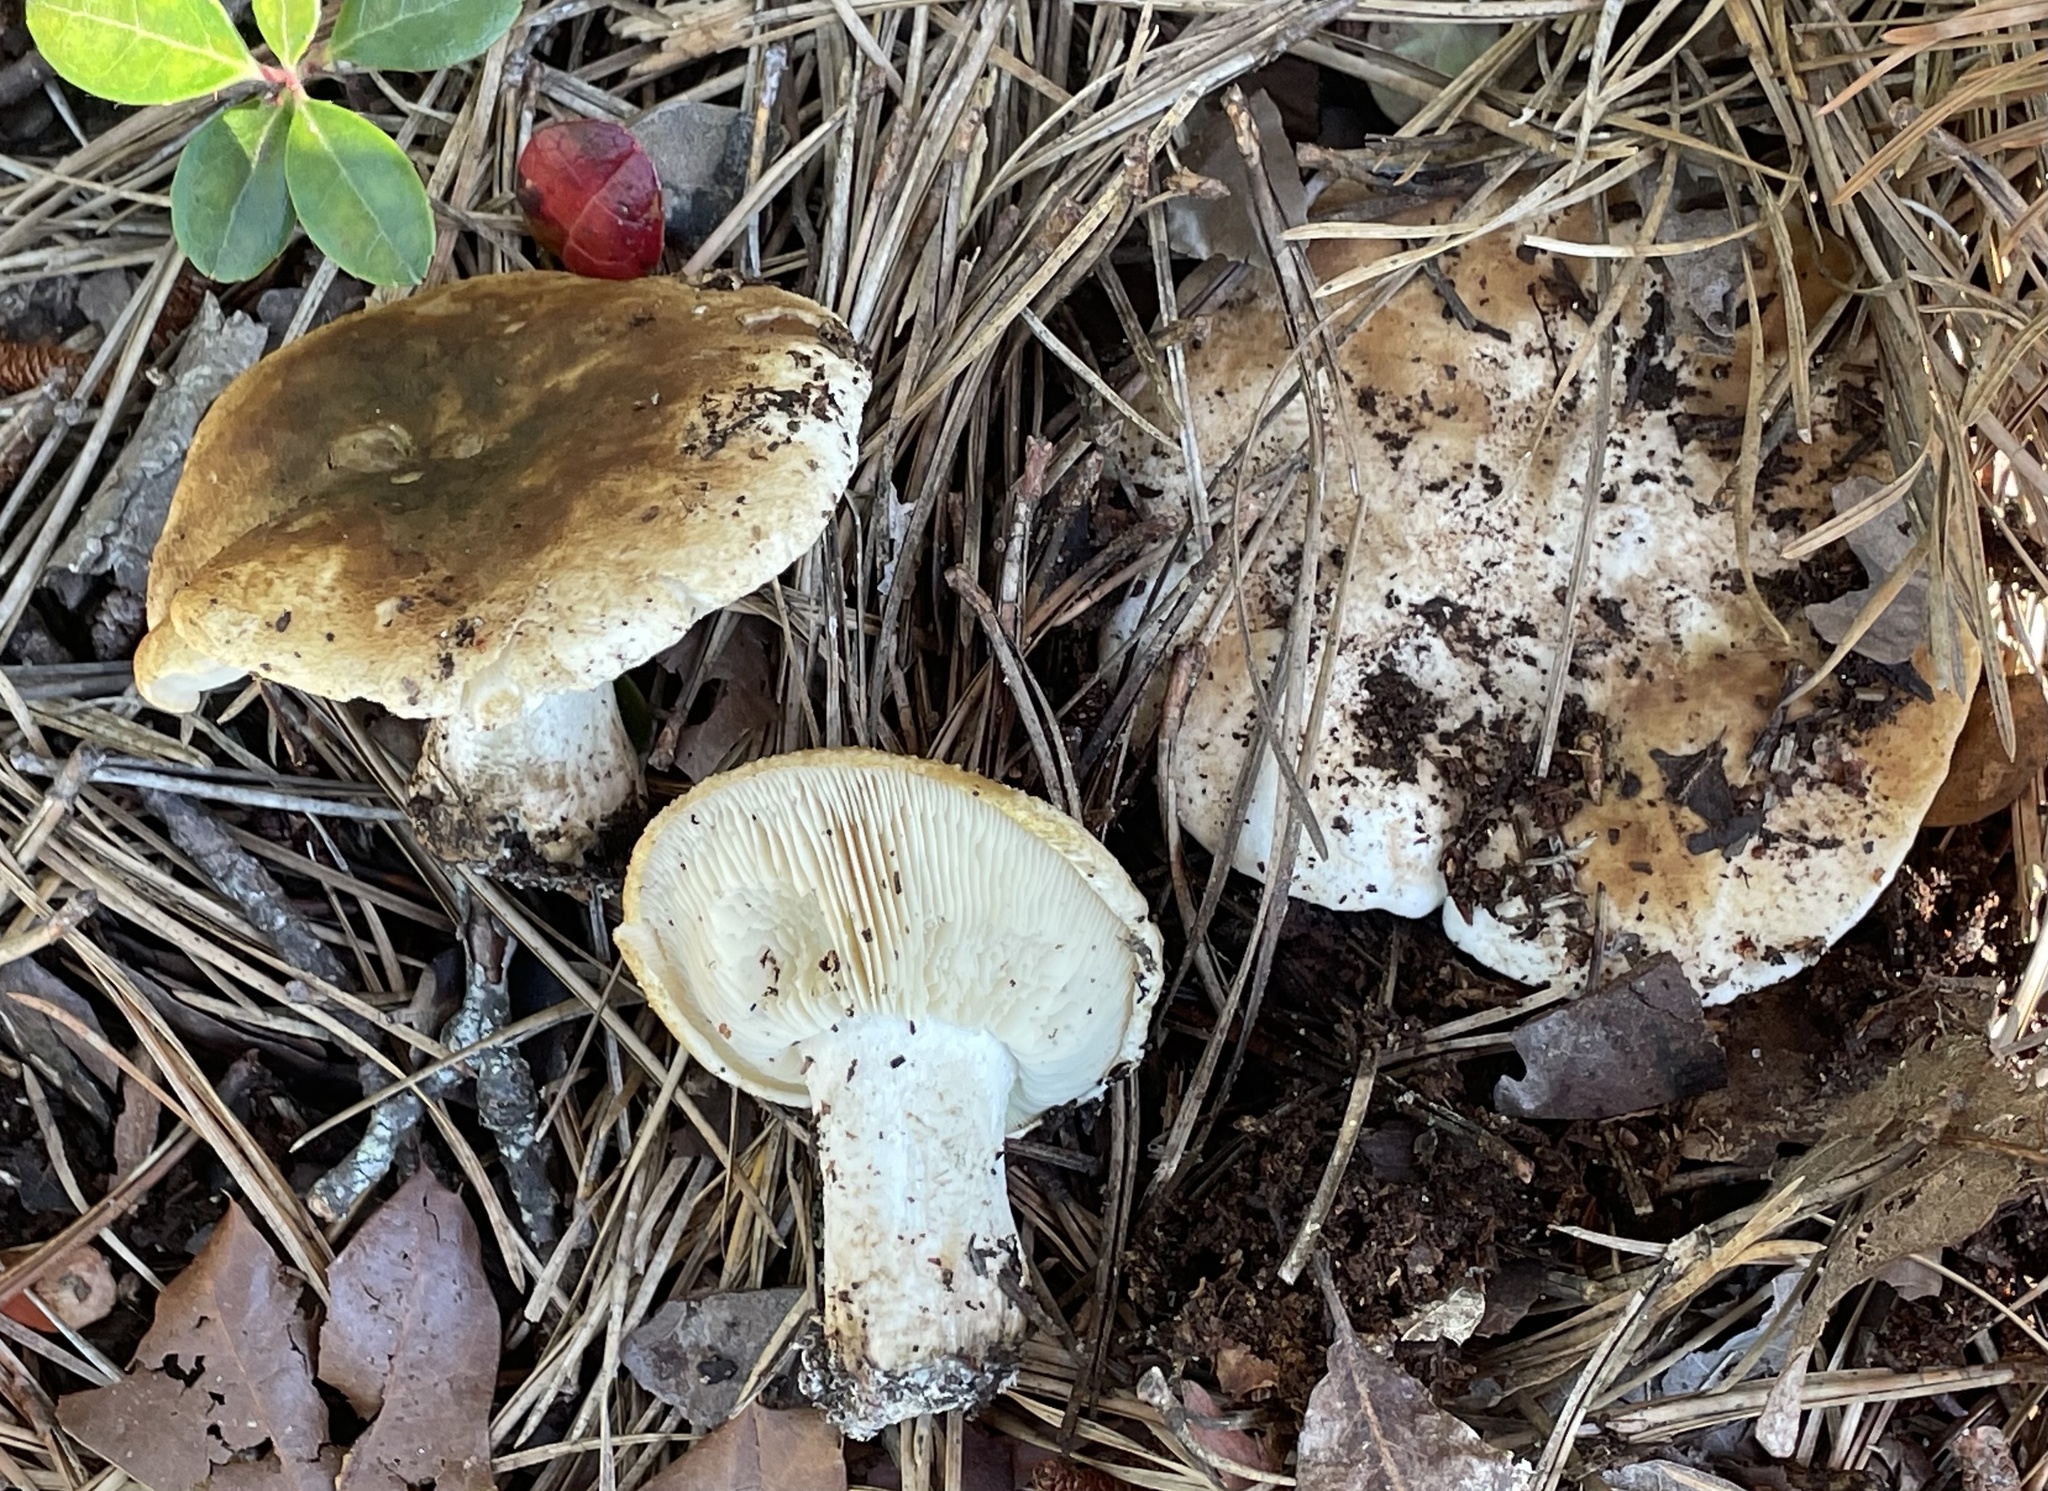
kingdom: Fungi
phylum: Basidiomycota
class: Agaricomycetes
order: Agaricales
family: Tricholomataceae
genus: Tricholoma
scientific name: Tricholoma apium
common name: Scented knight
